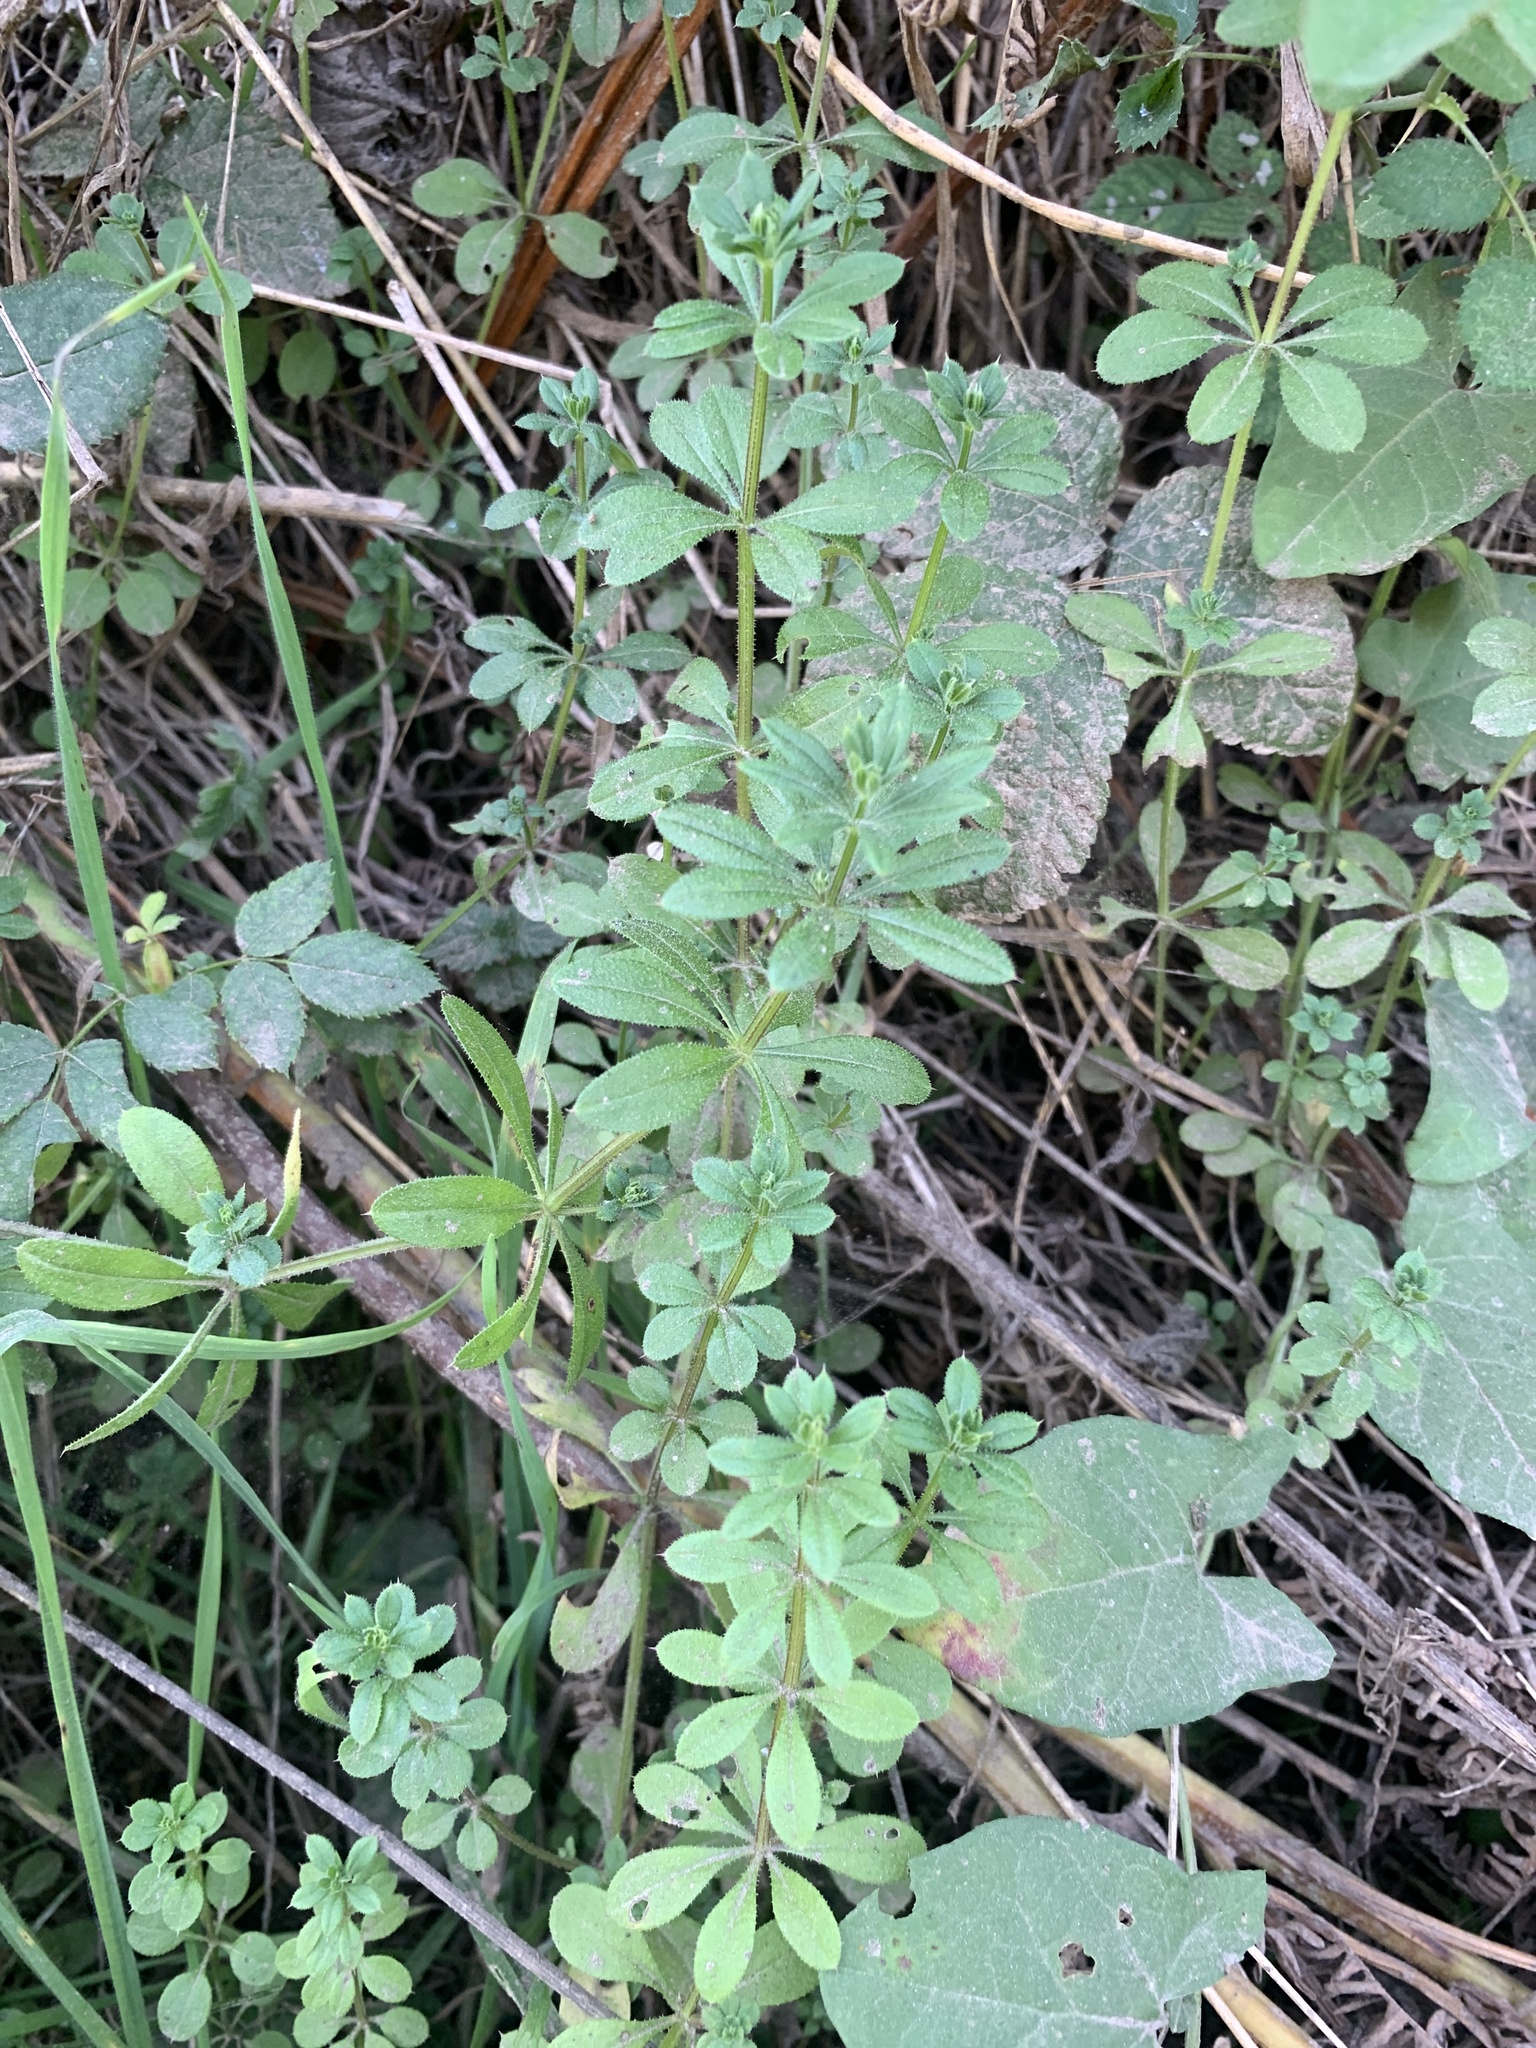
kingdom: Plantae
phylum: Tracheophyta
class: Magnoliopsida
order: Gentianales
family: Rubiaceae
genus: Galium
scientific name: Galium aparine
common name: Cleavers
